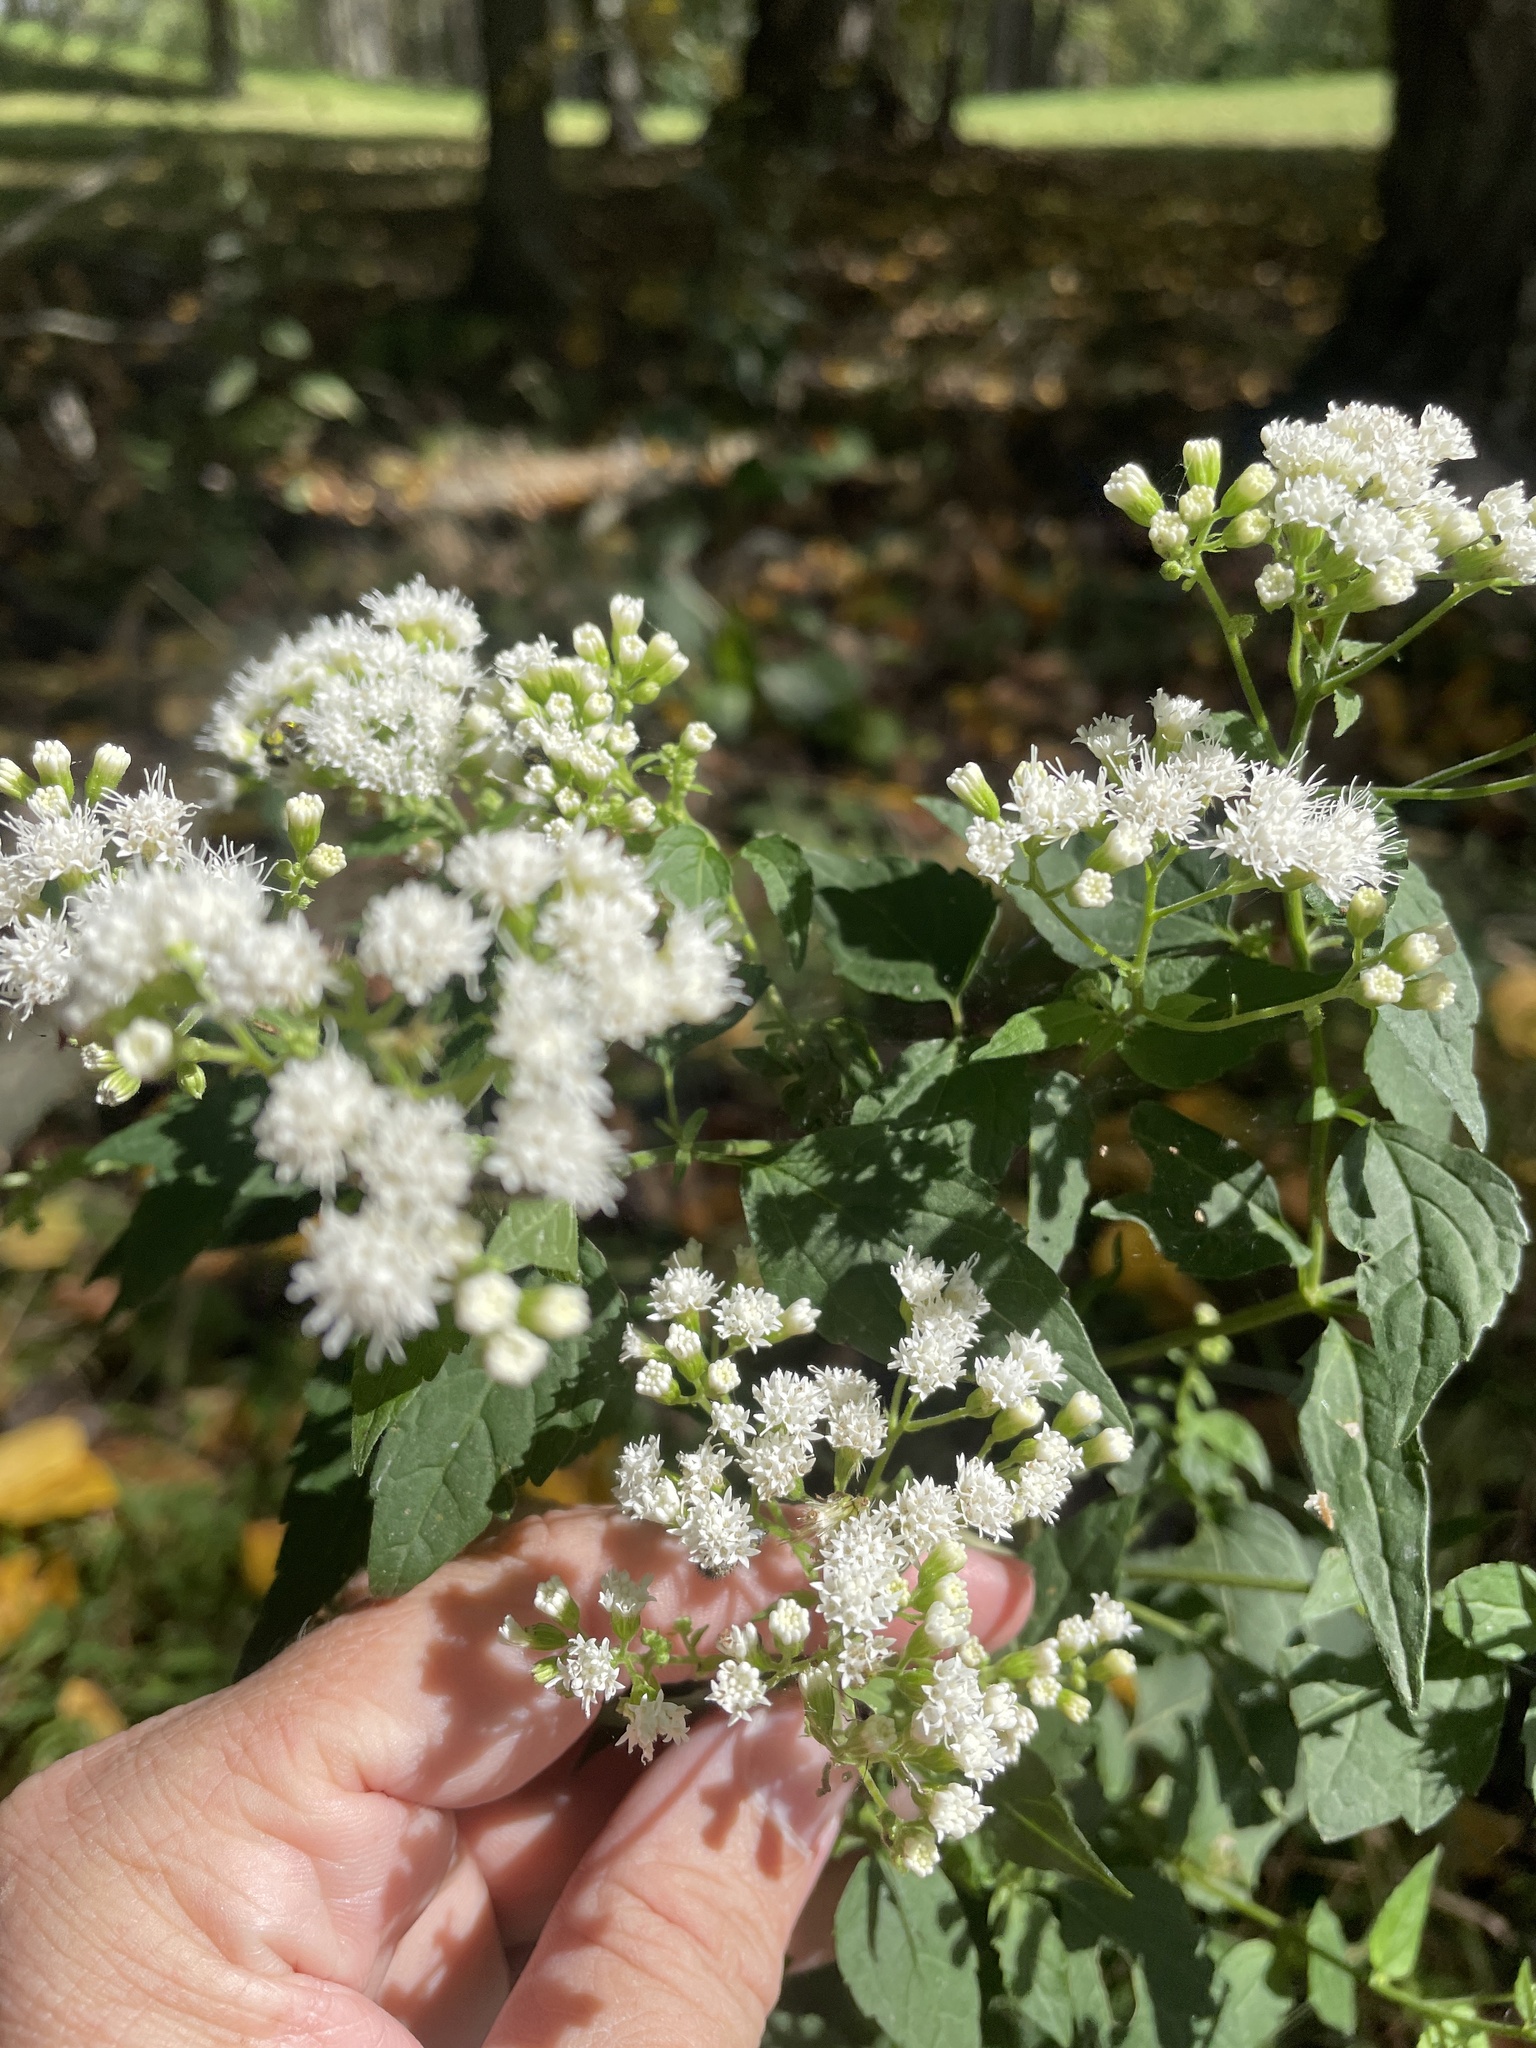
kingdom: Plantae
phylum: Tracheophyta
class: Magnoliopsida
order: Asterales
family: Asteraceae
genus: Ageratina
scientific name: Ageratina altissima
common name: White snakeroot
